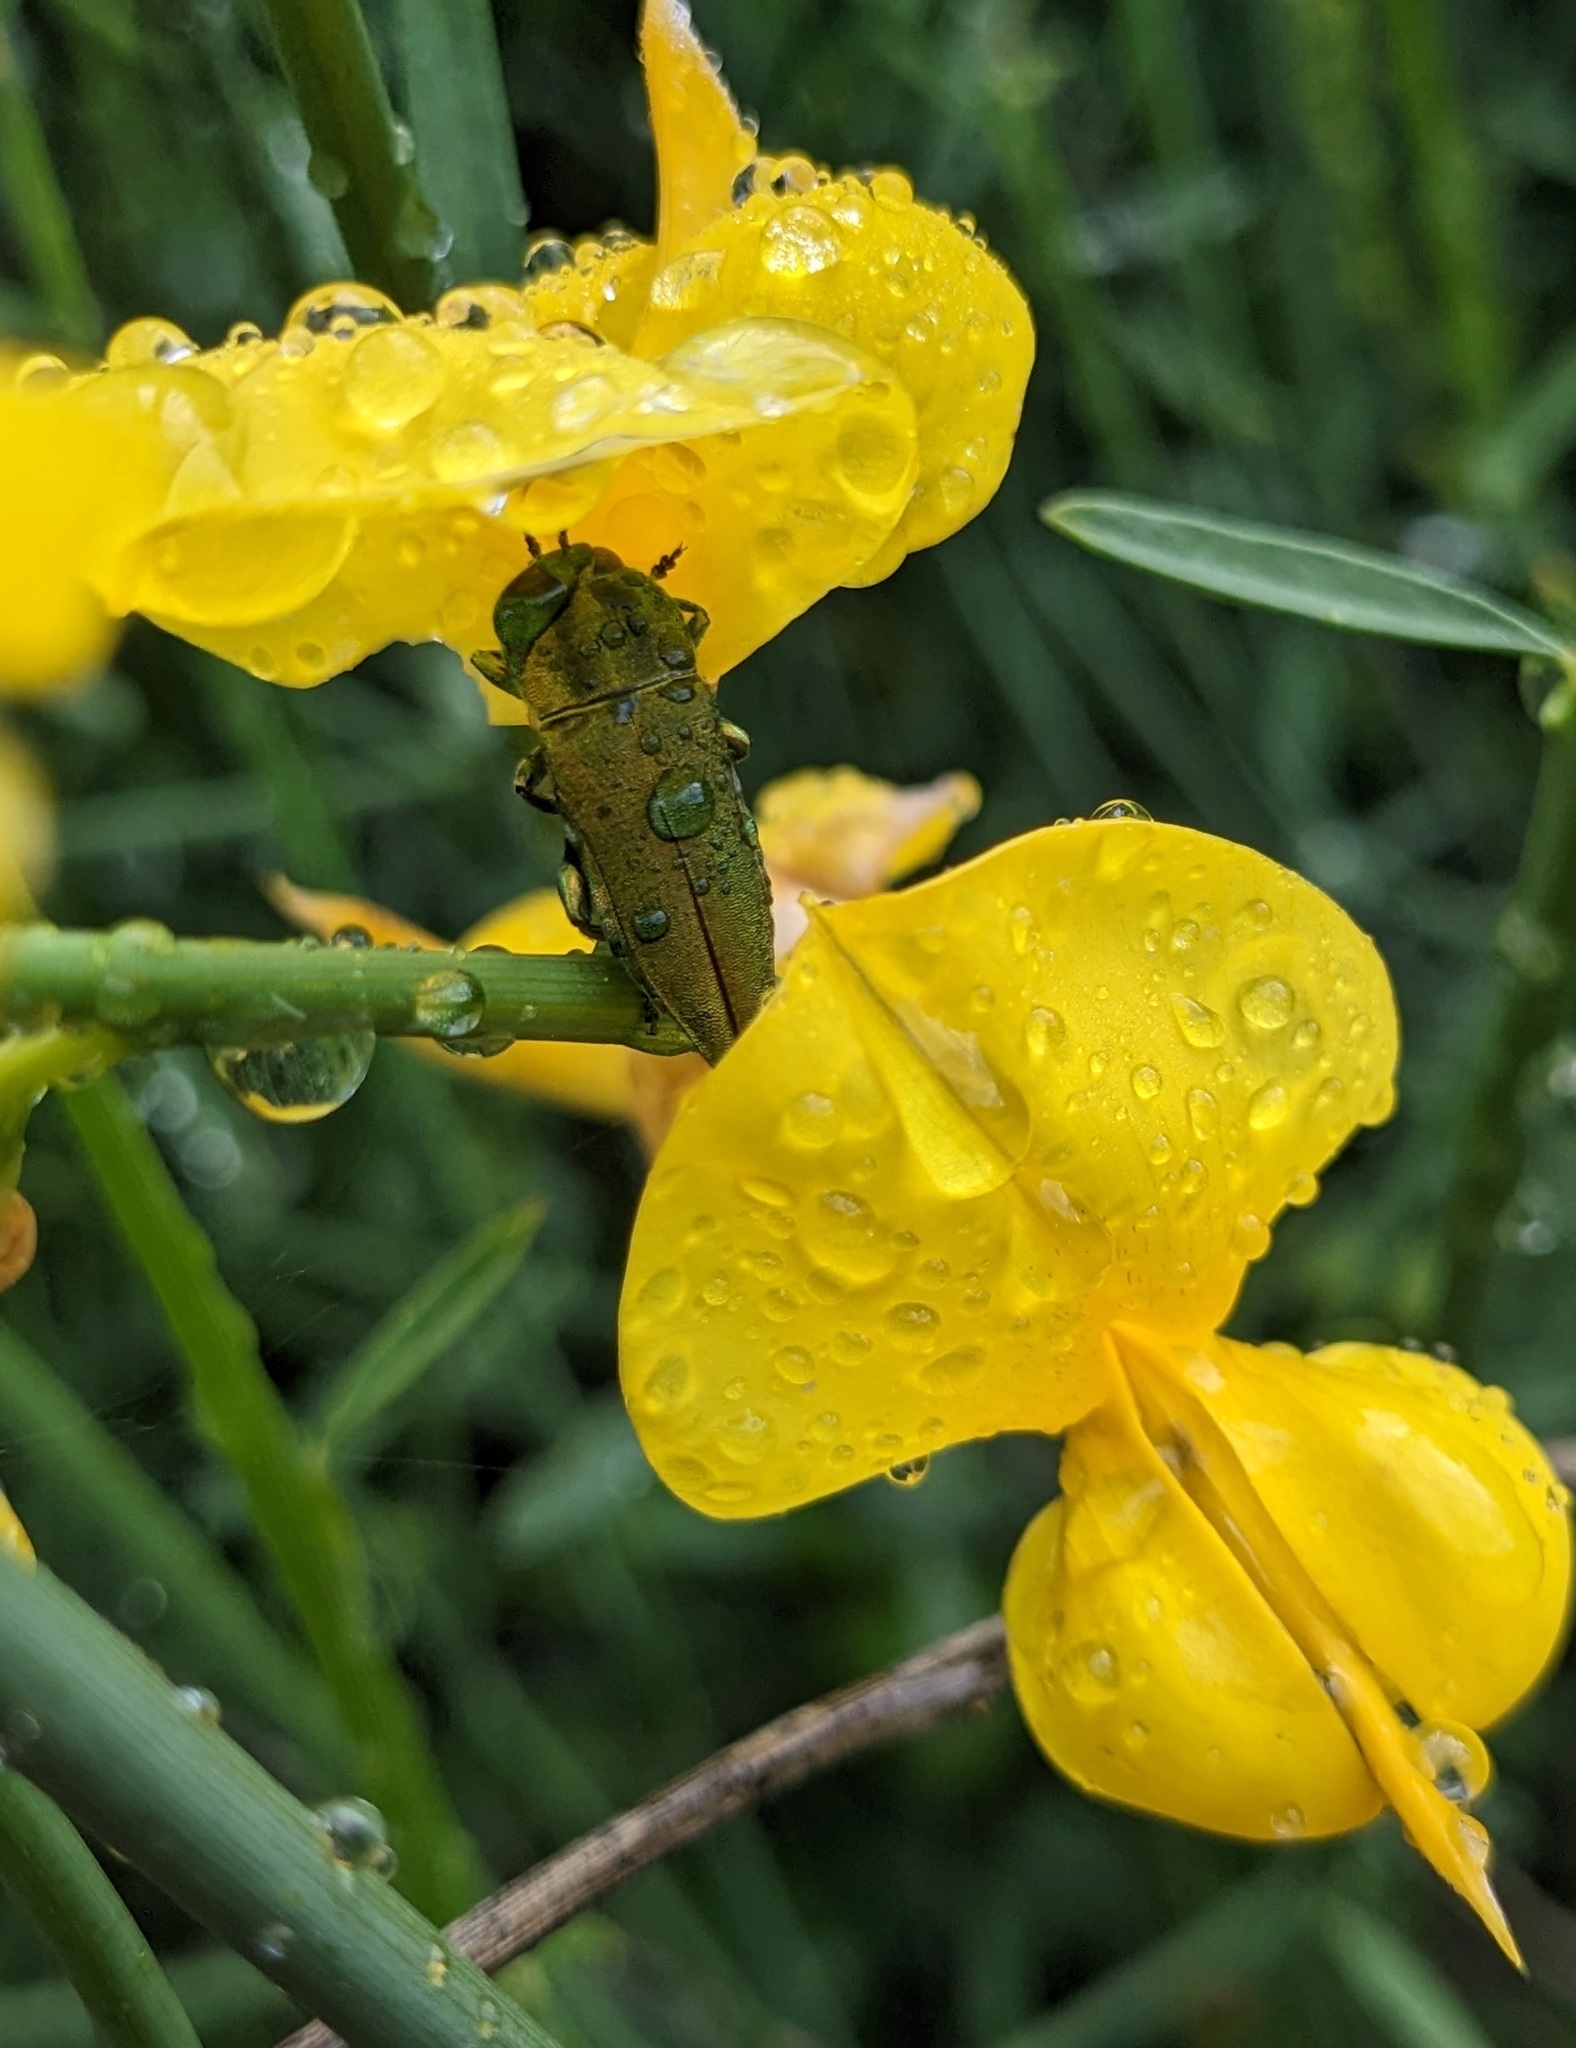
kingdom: Animalia
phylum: Arthropoda
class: Insecta
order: Coleoptera
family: Buprestidae
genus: Anthaxia
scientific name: Anthaxia hungarica
